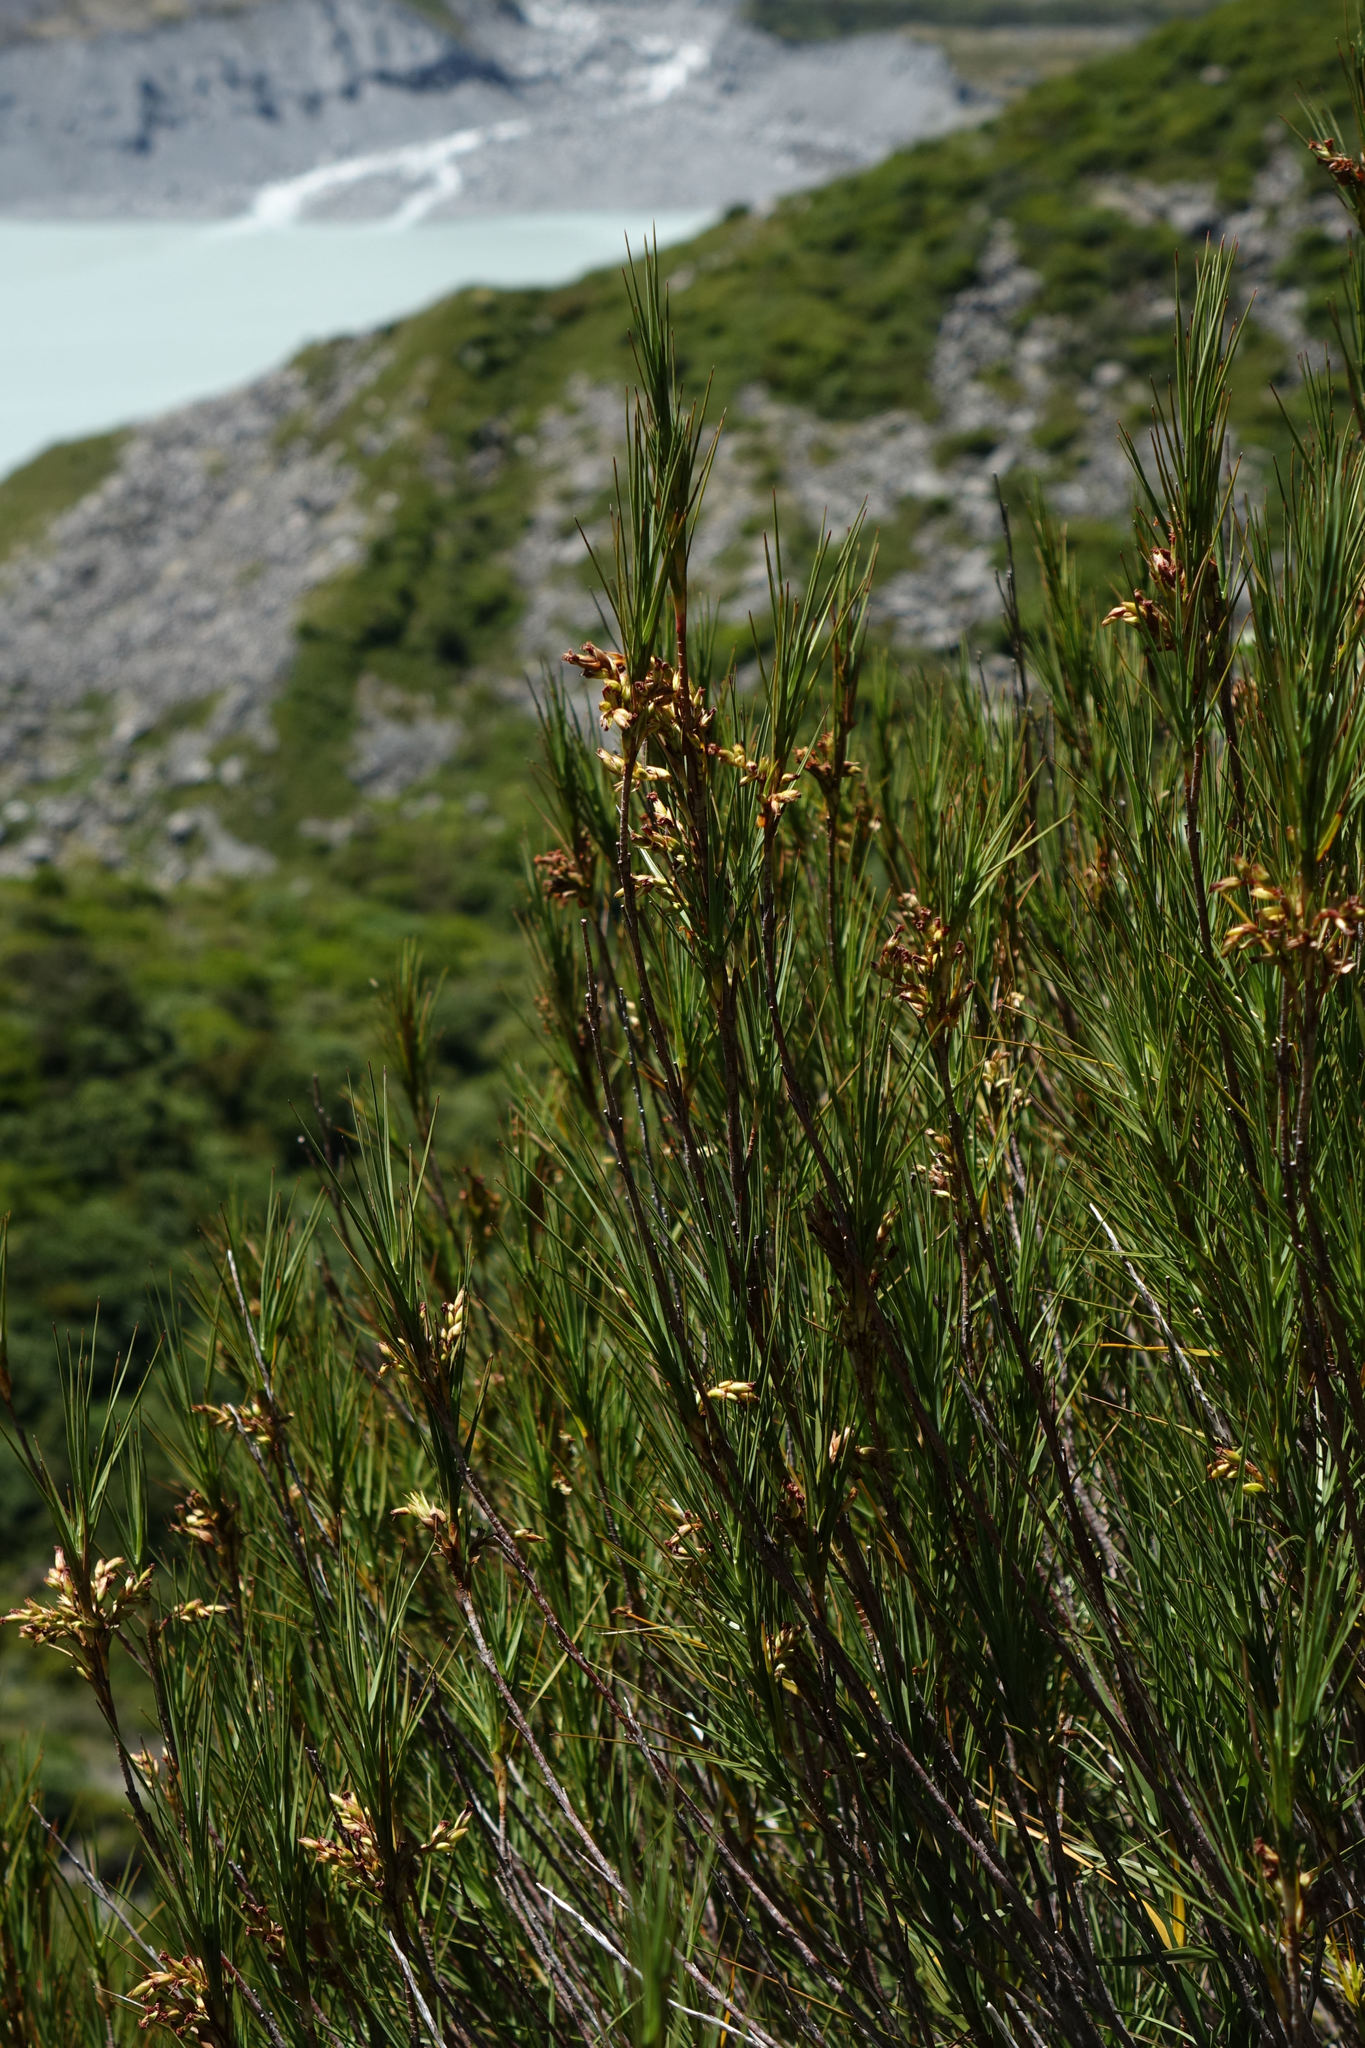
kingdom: Plantae
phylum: Tracheophyta
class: Magnoliopsida
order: Ericales
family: Ericaceae
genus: Dracophyllum
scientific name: Dracophyllum longifolium
